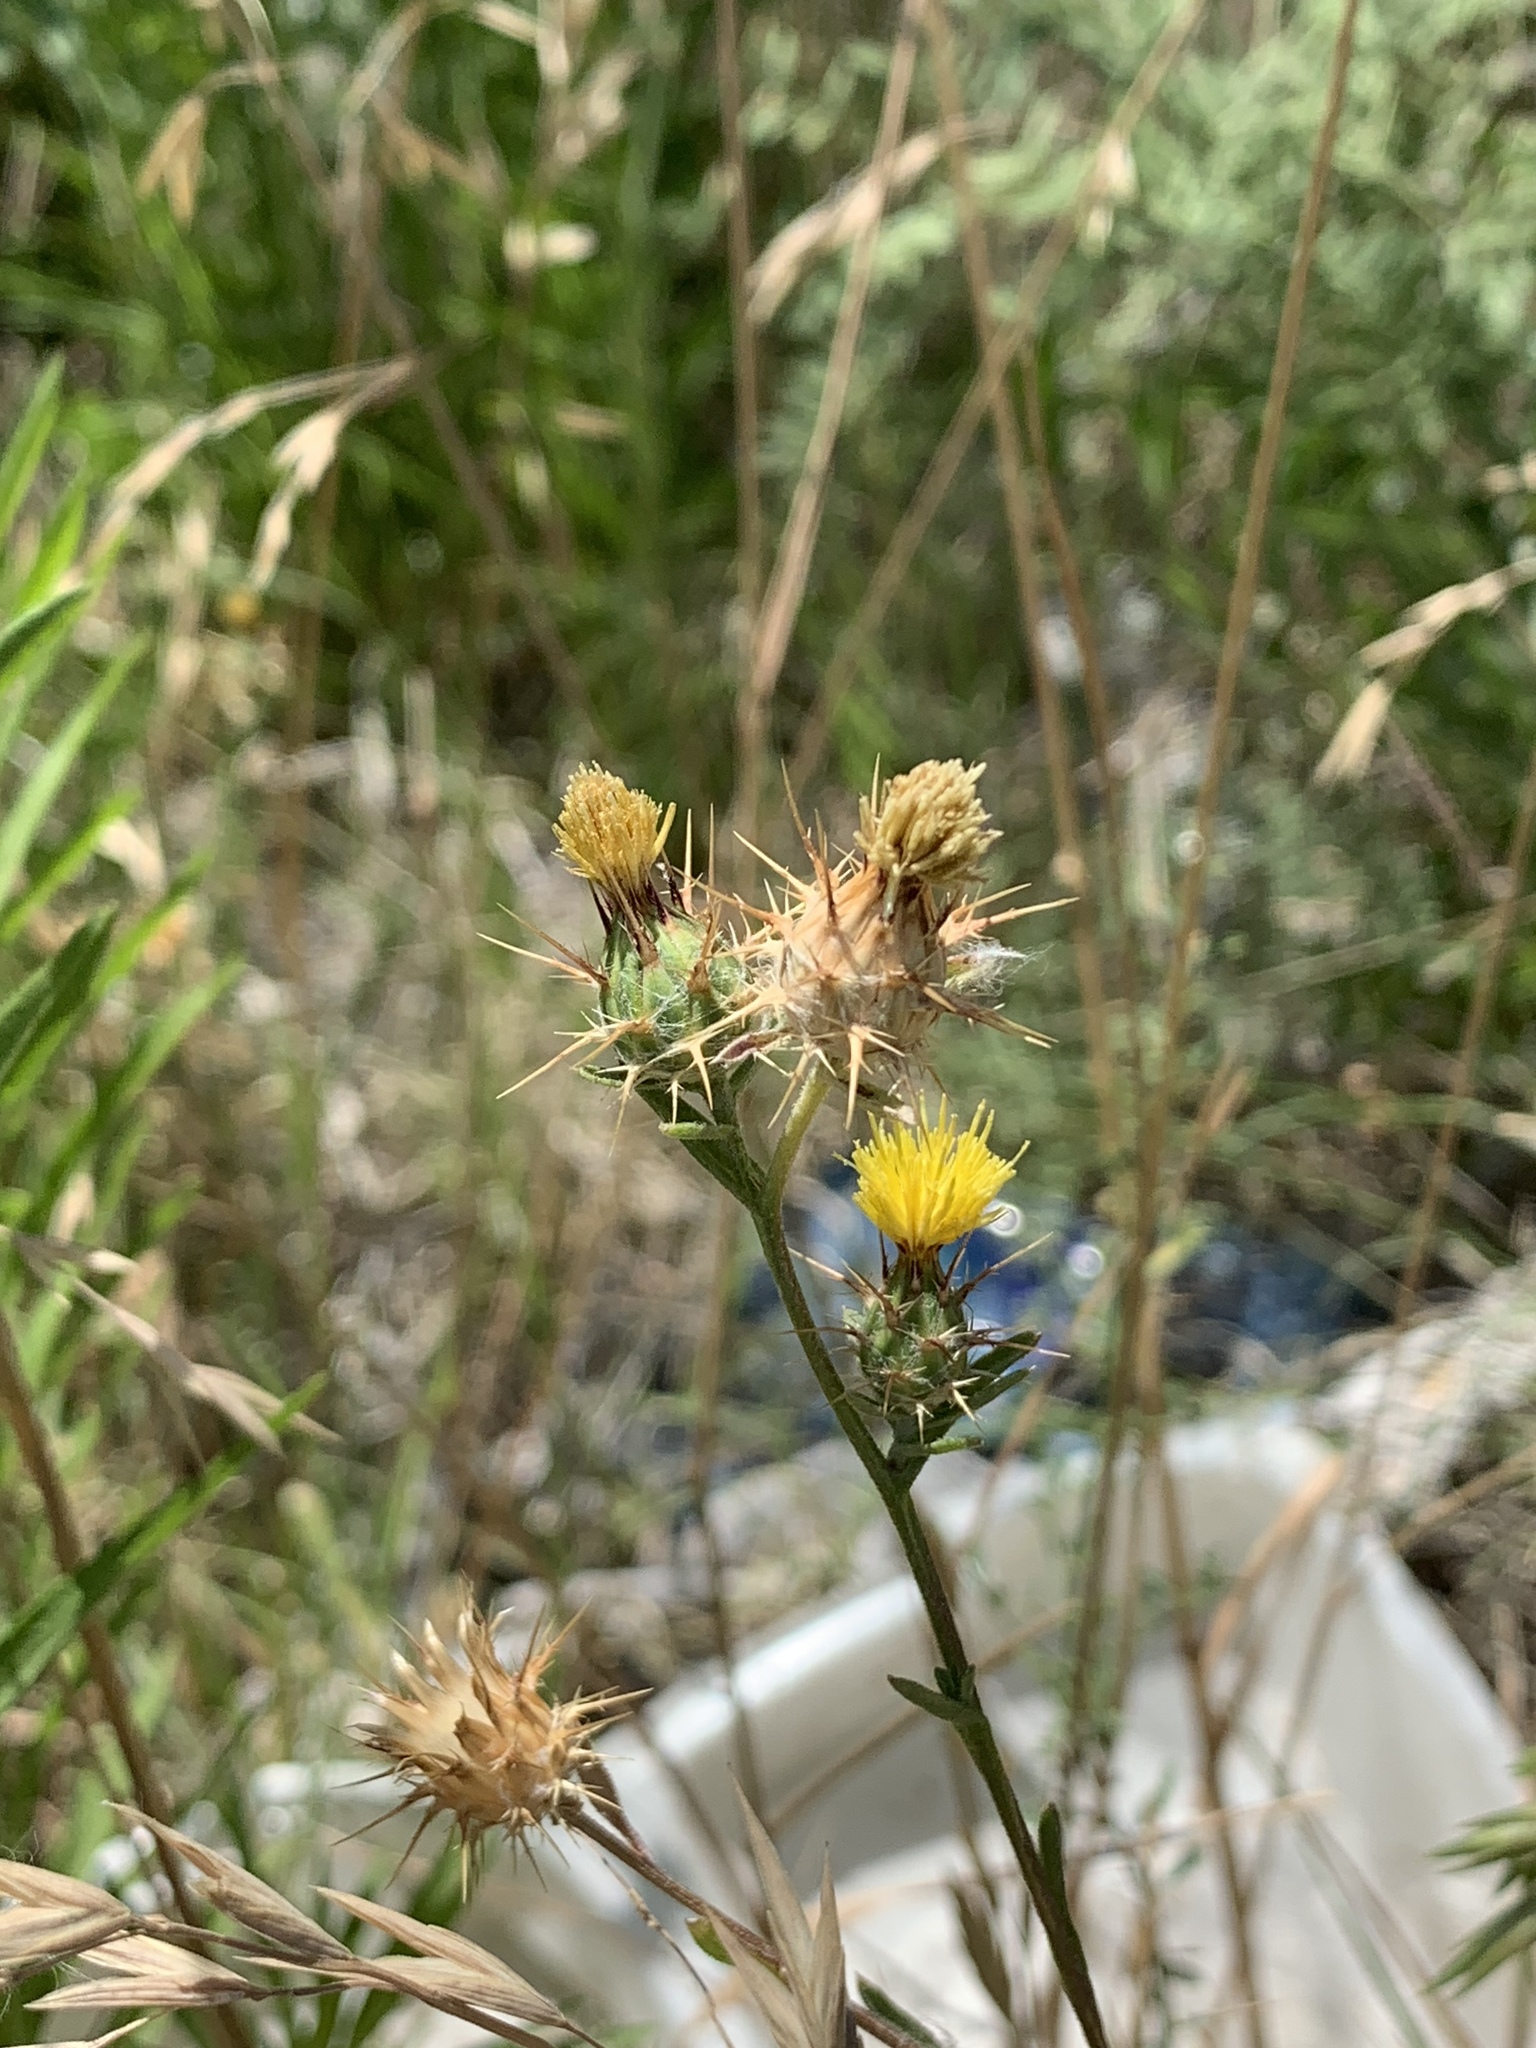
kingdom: Plantae
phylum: Tracheophyta
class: Magnoliopsida
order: Asterales
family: Asteraceae
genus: Centaurea
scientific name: Centaurea melitensis
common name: Maltese star-thistle
